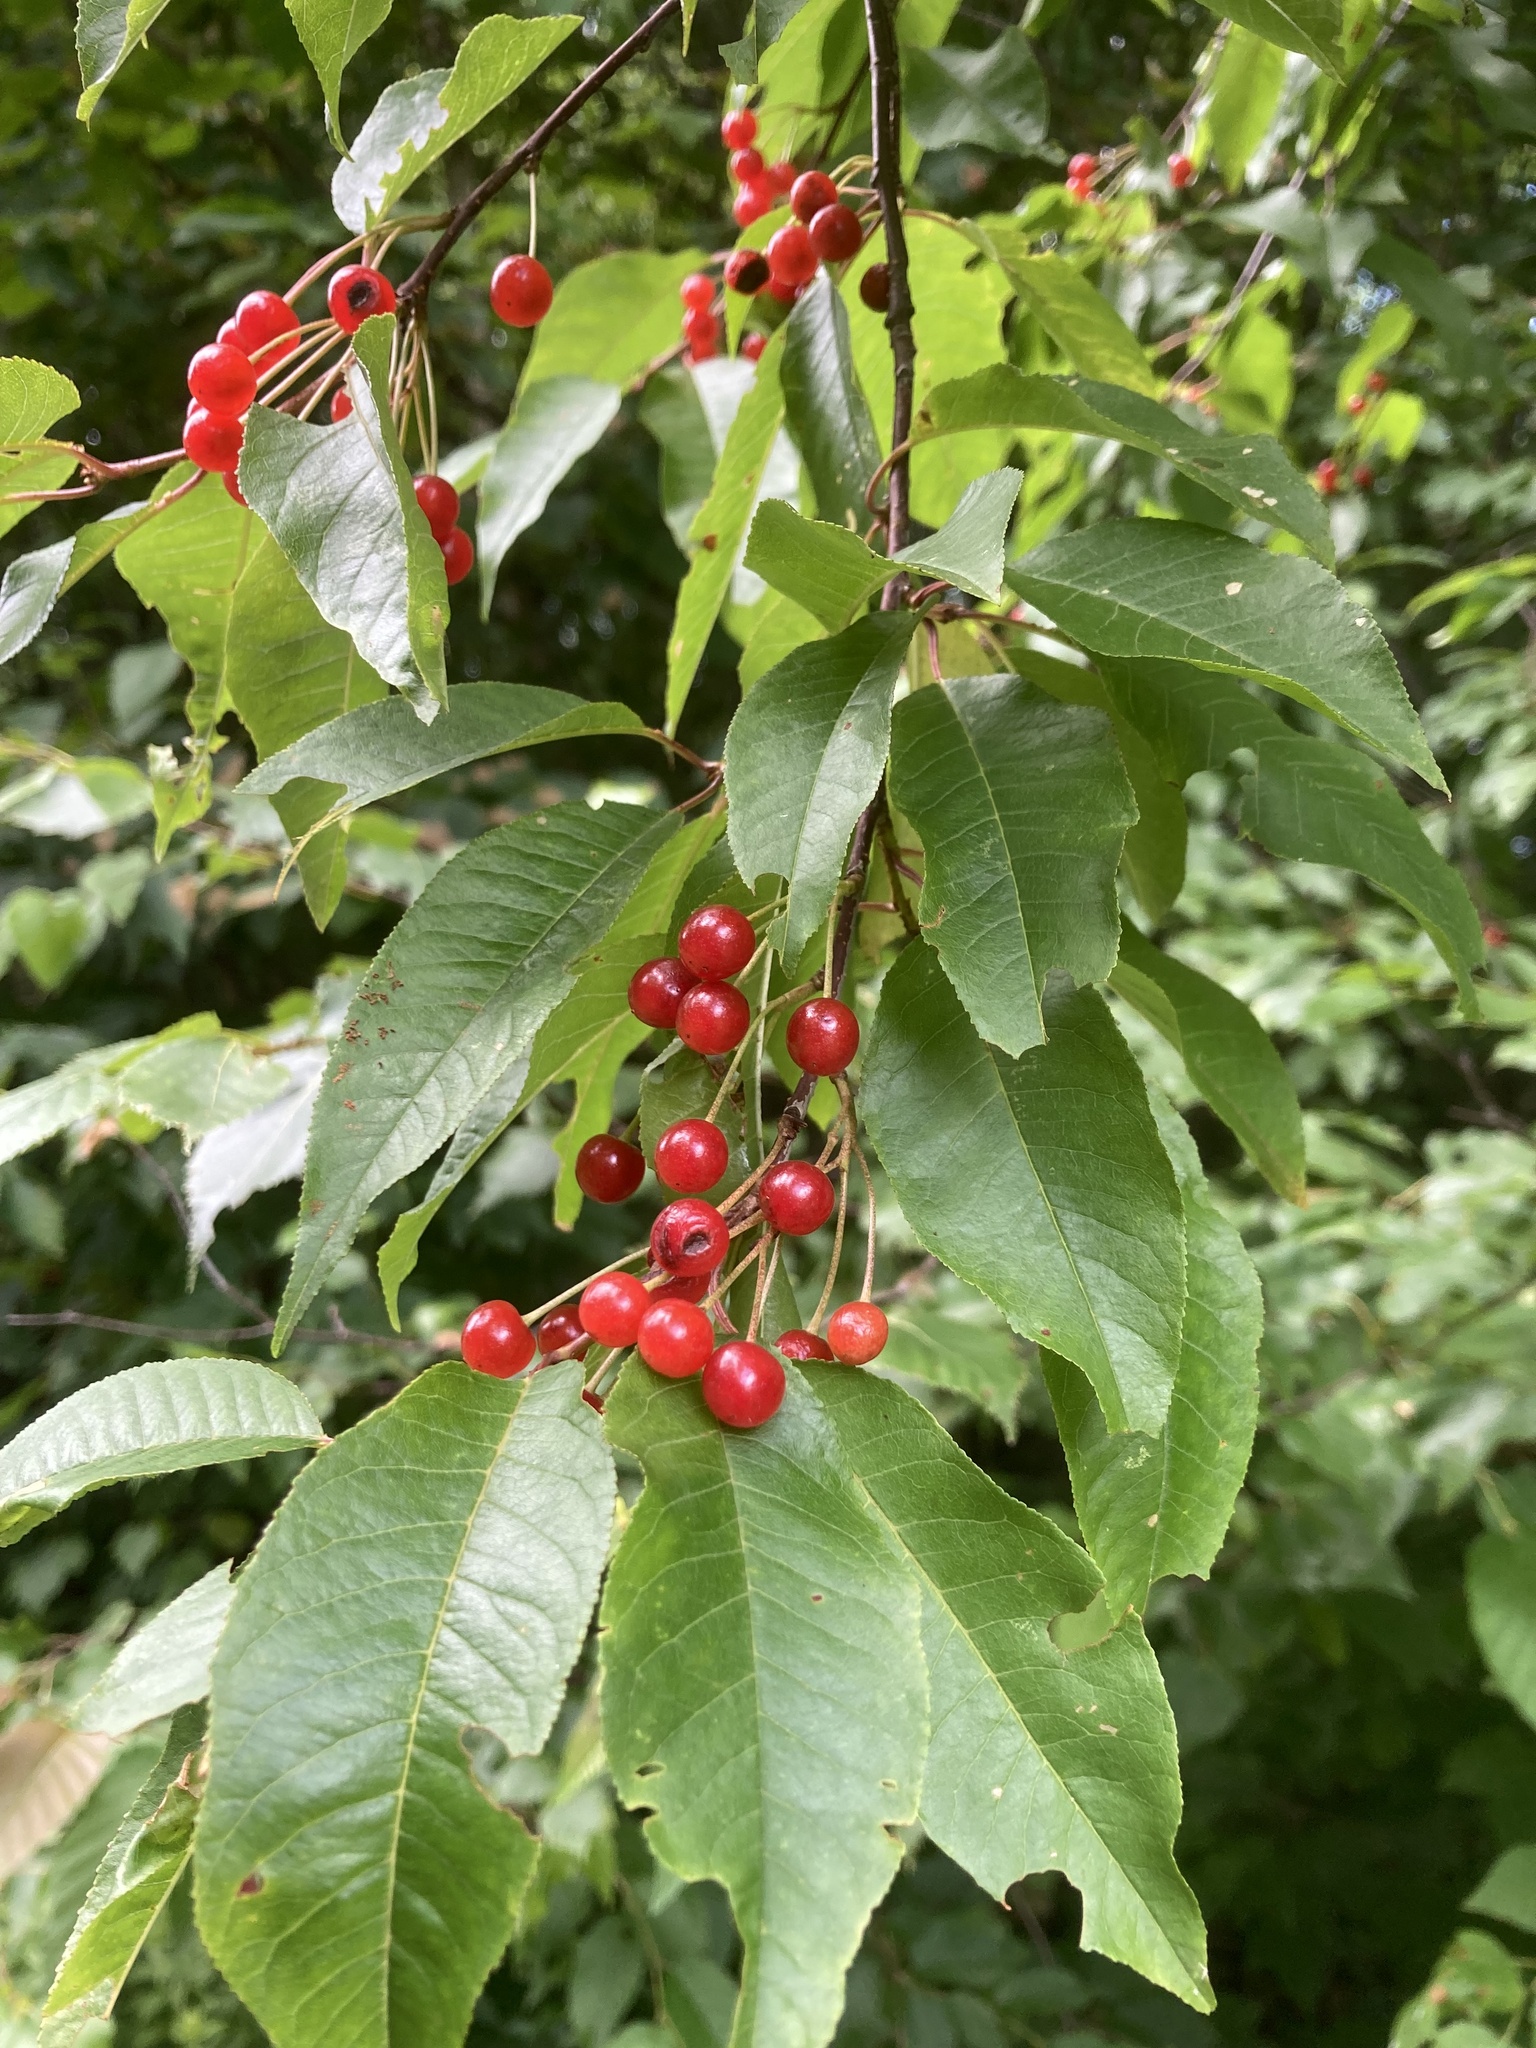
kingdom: Plantae
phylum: Tracheophyta
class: Magnoliopsida
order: Rosales
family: Rosaceae
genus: Prunus
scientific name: Prunus pensylvanica
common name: Pin cherry
